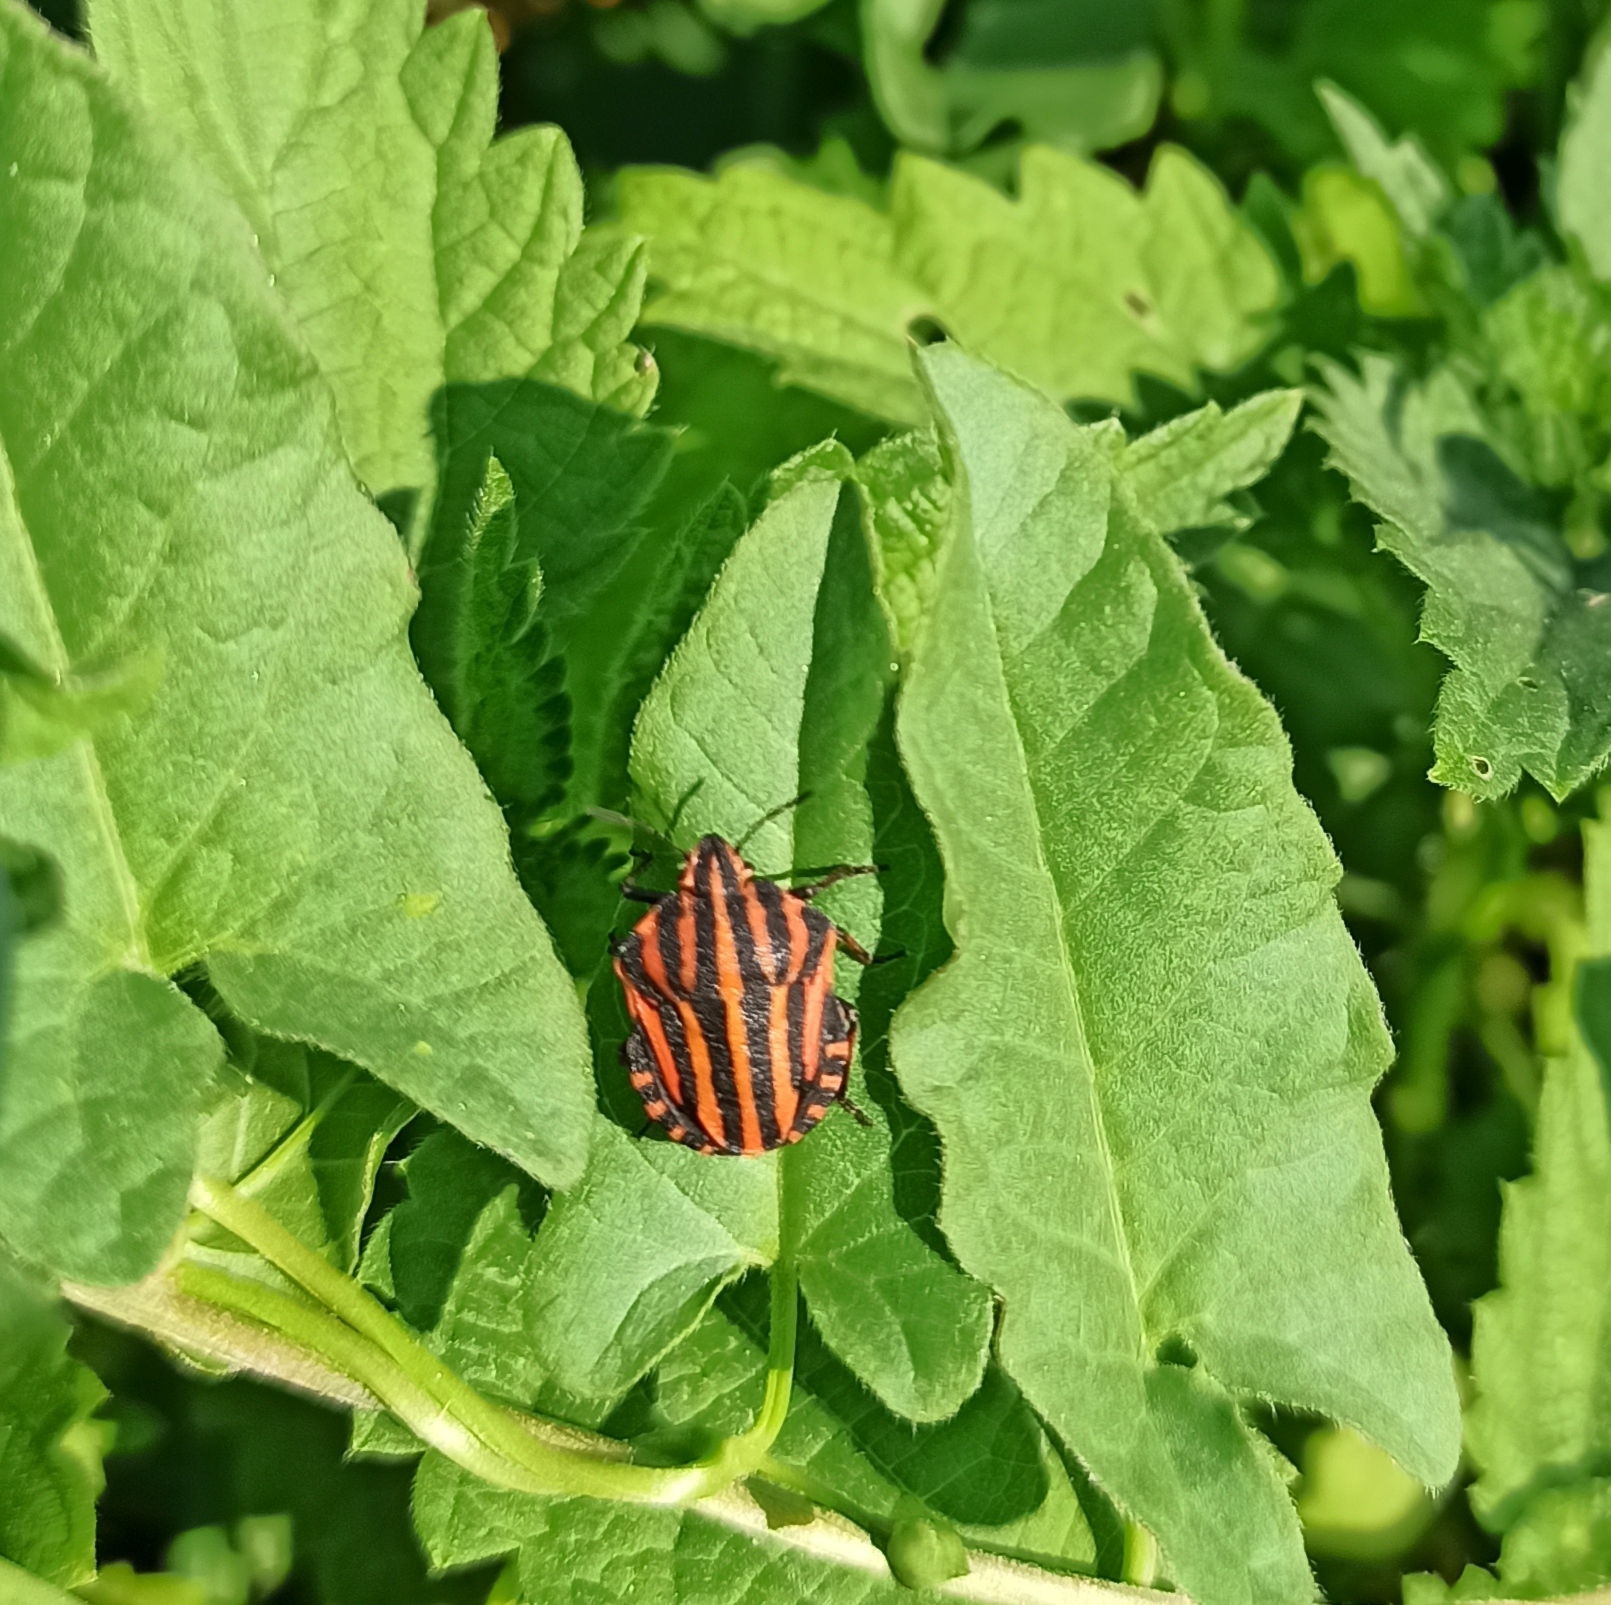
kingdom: Animalia
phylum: Arthropoda
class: Insecta
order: Hemiptera
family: Pentatomidae
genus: Graphosoma
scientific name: Graphosoma italicum
